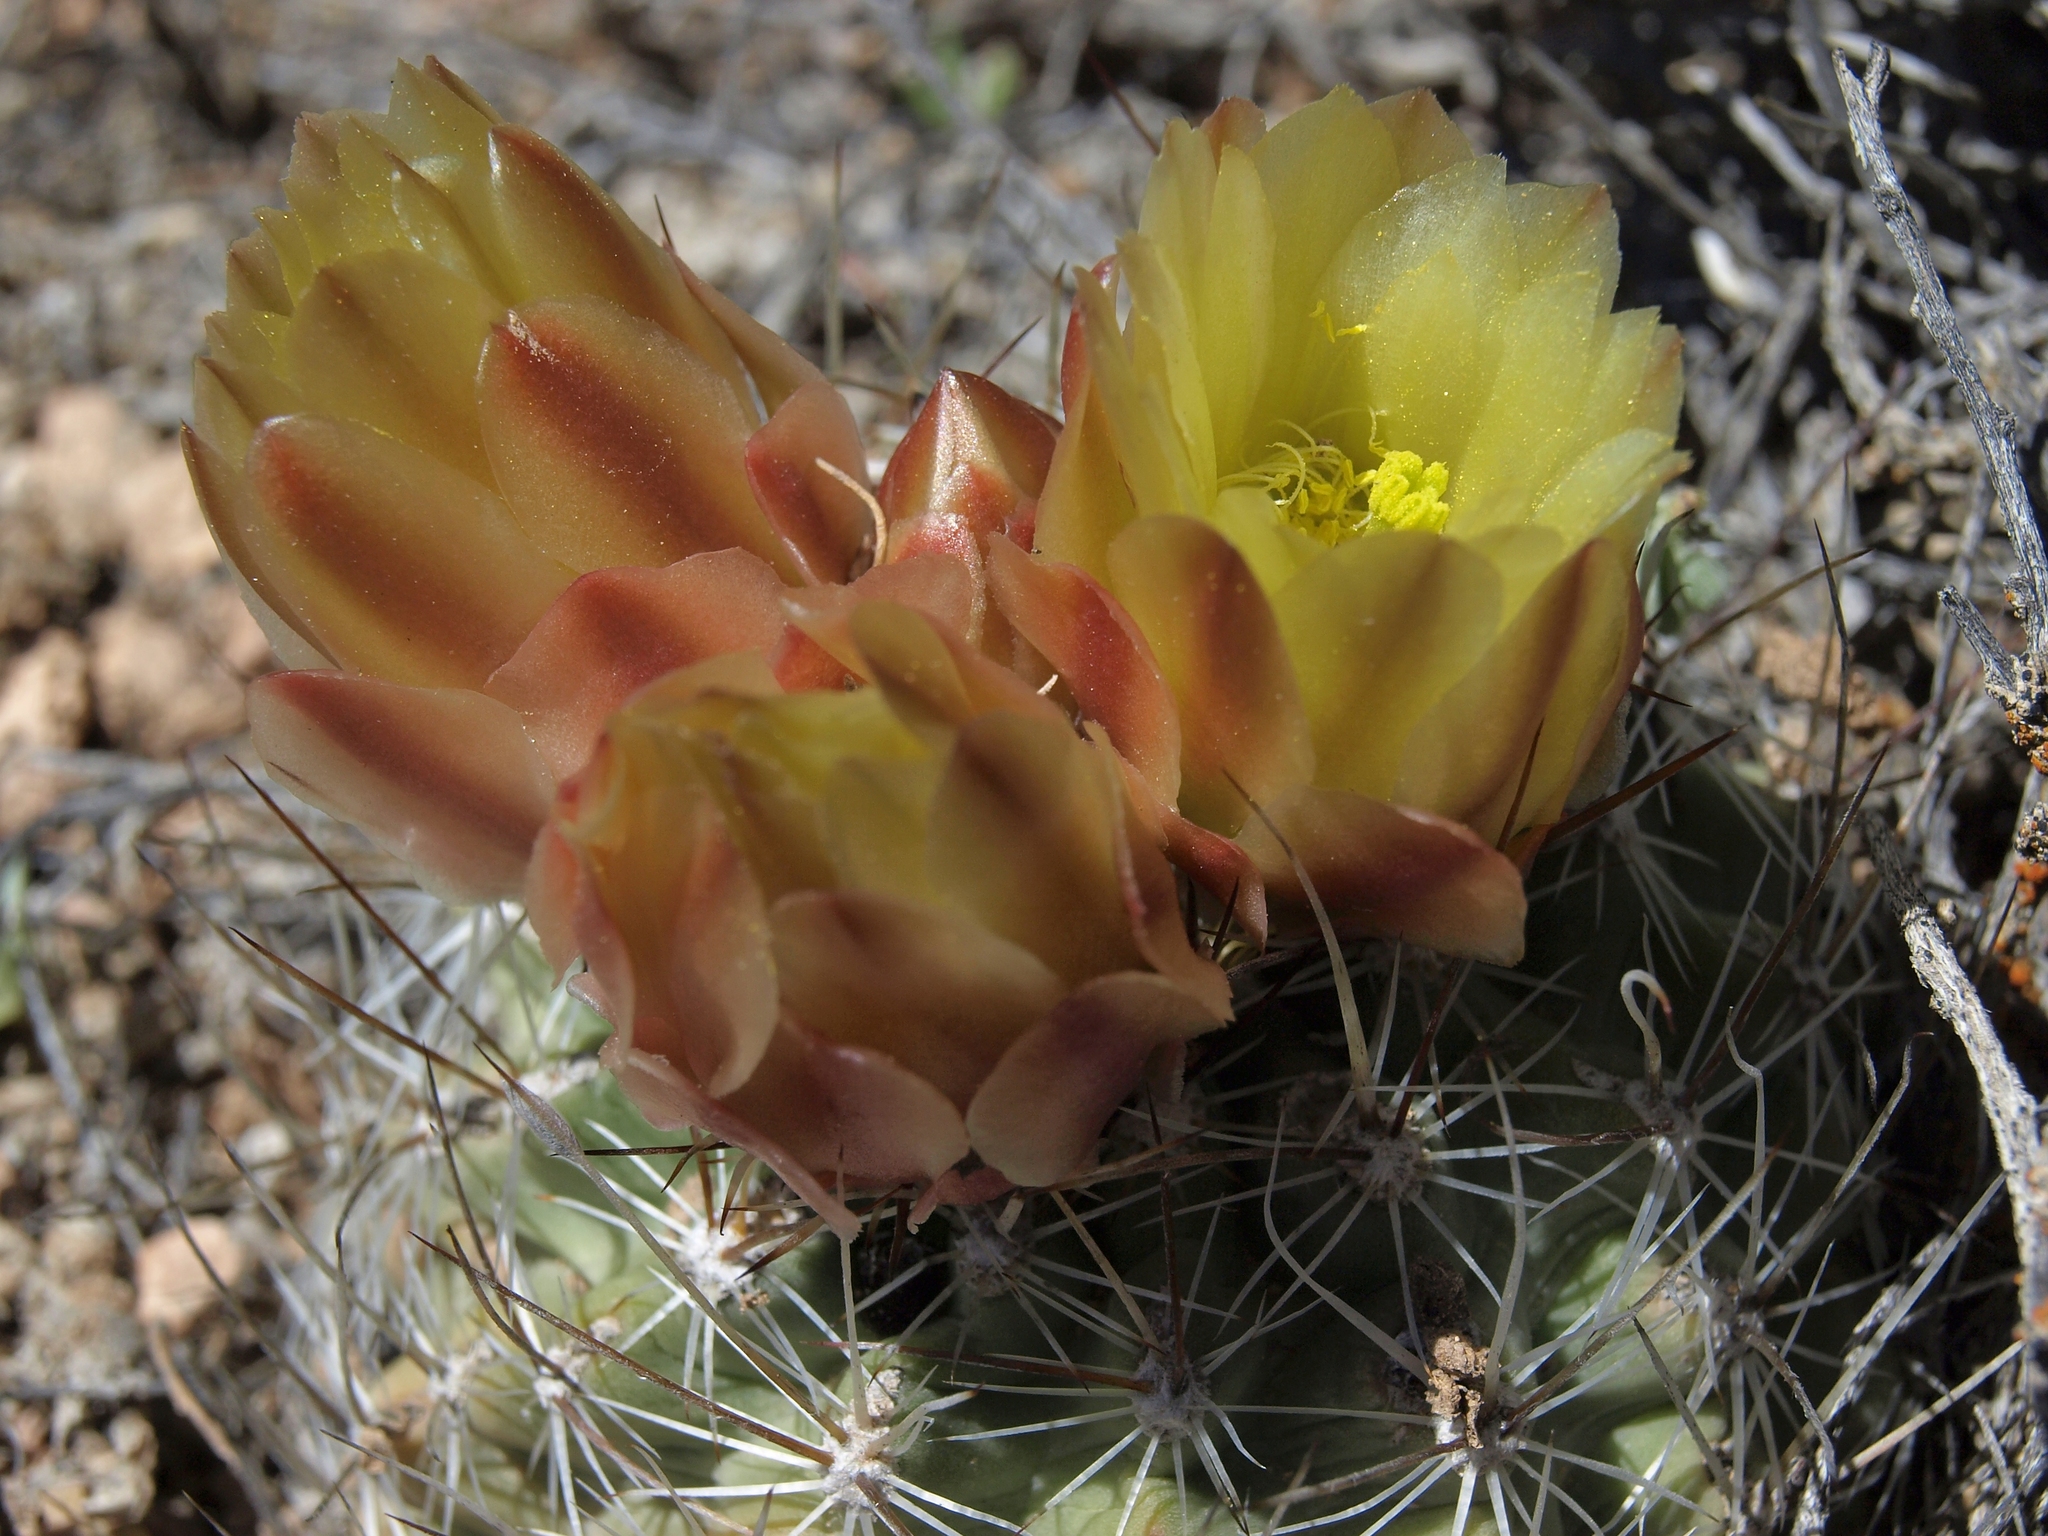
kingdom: Plantae
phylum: Tracheophyta
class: Magnoliopsida
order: Caryophyllales
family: Cactaceae
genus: Sclerocactus
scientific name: Sclerocactus pubispinus
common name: Great basin fishhook cactus
